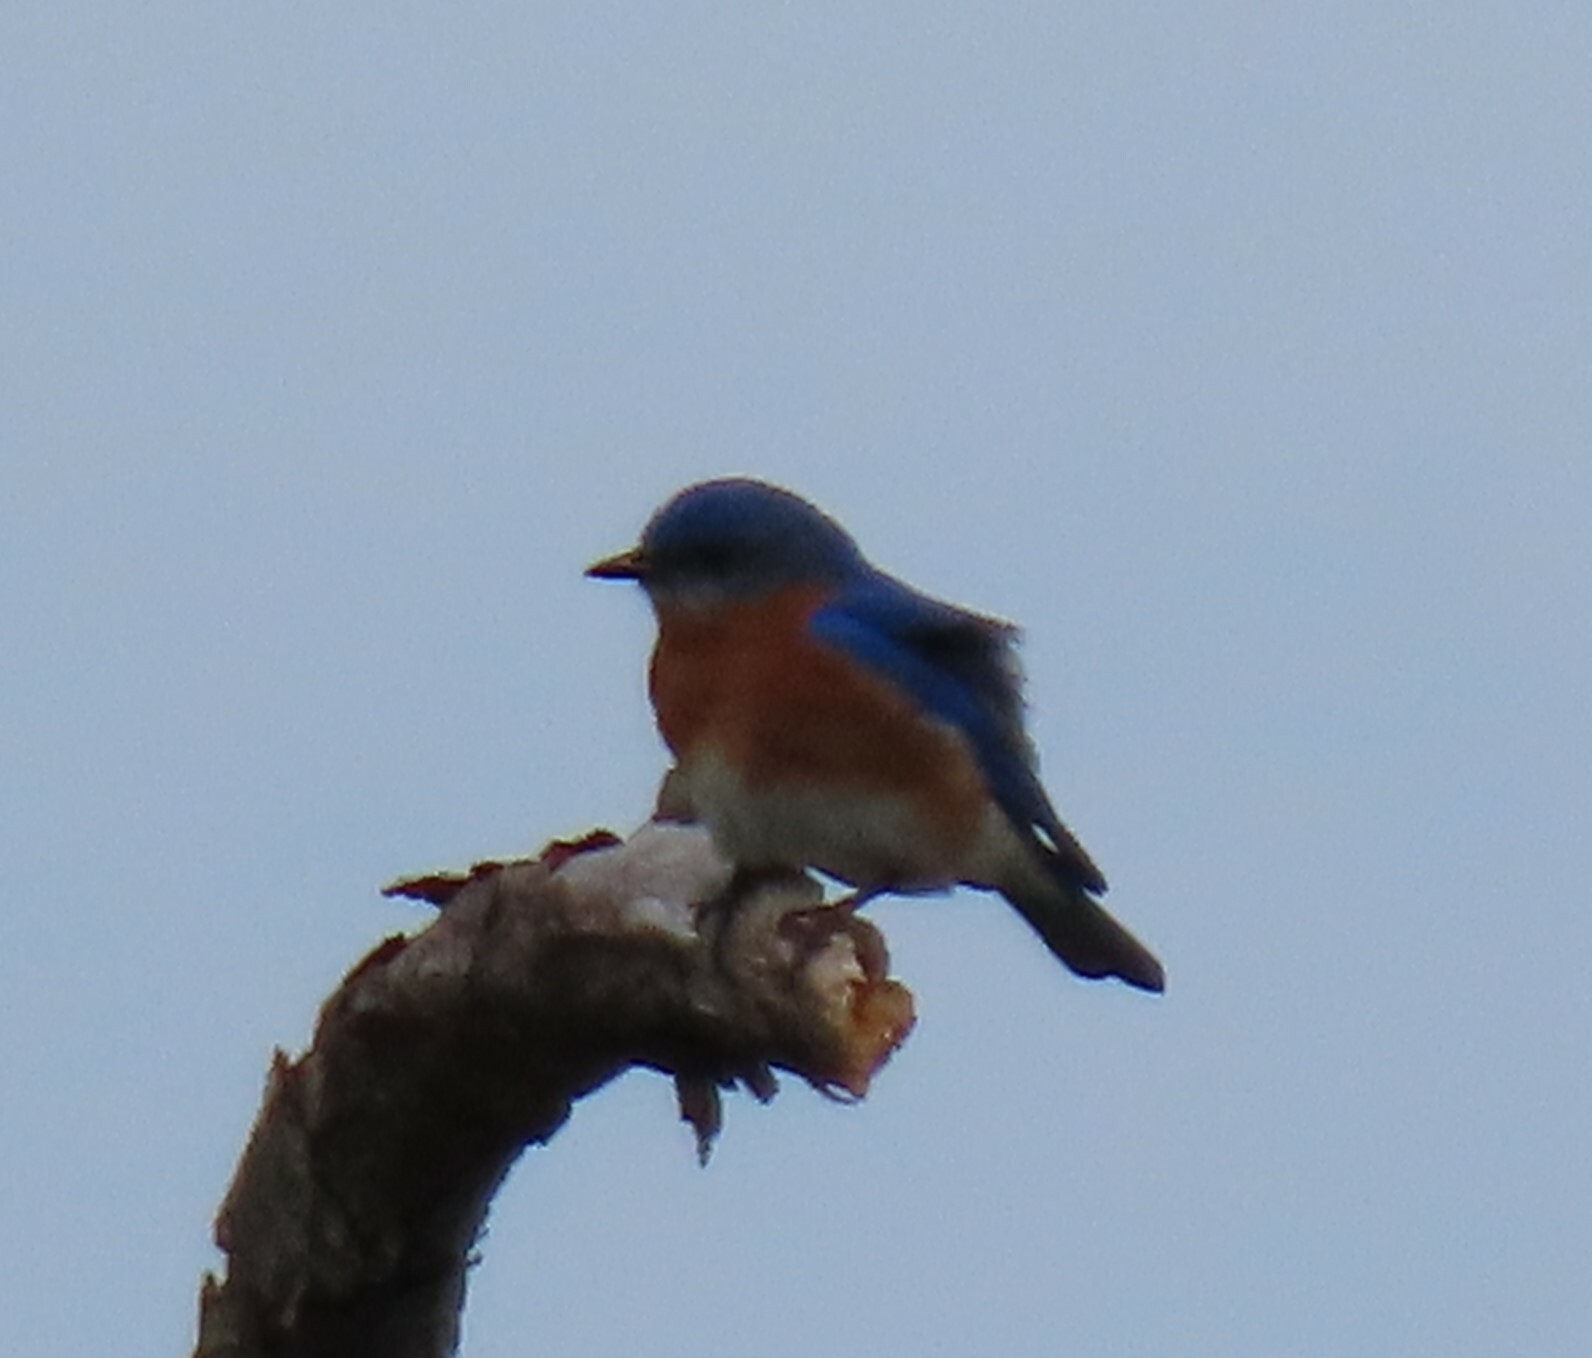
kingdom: Animalia
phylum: Chordata
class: Aves
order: Passeriformes
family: Turdidae
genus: Sialia
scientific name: Sialia sialis
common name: Eastern bluebird
